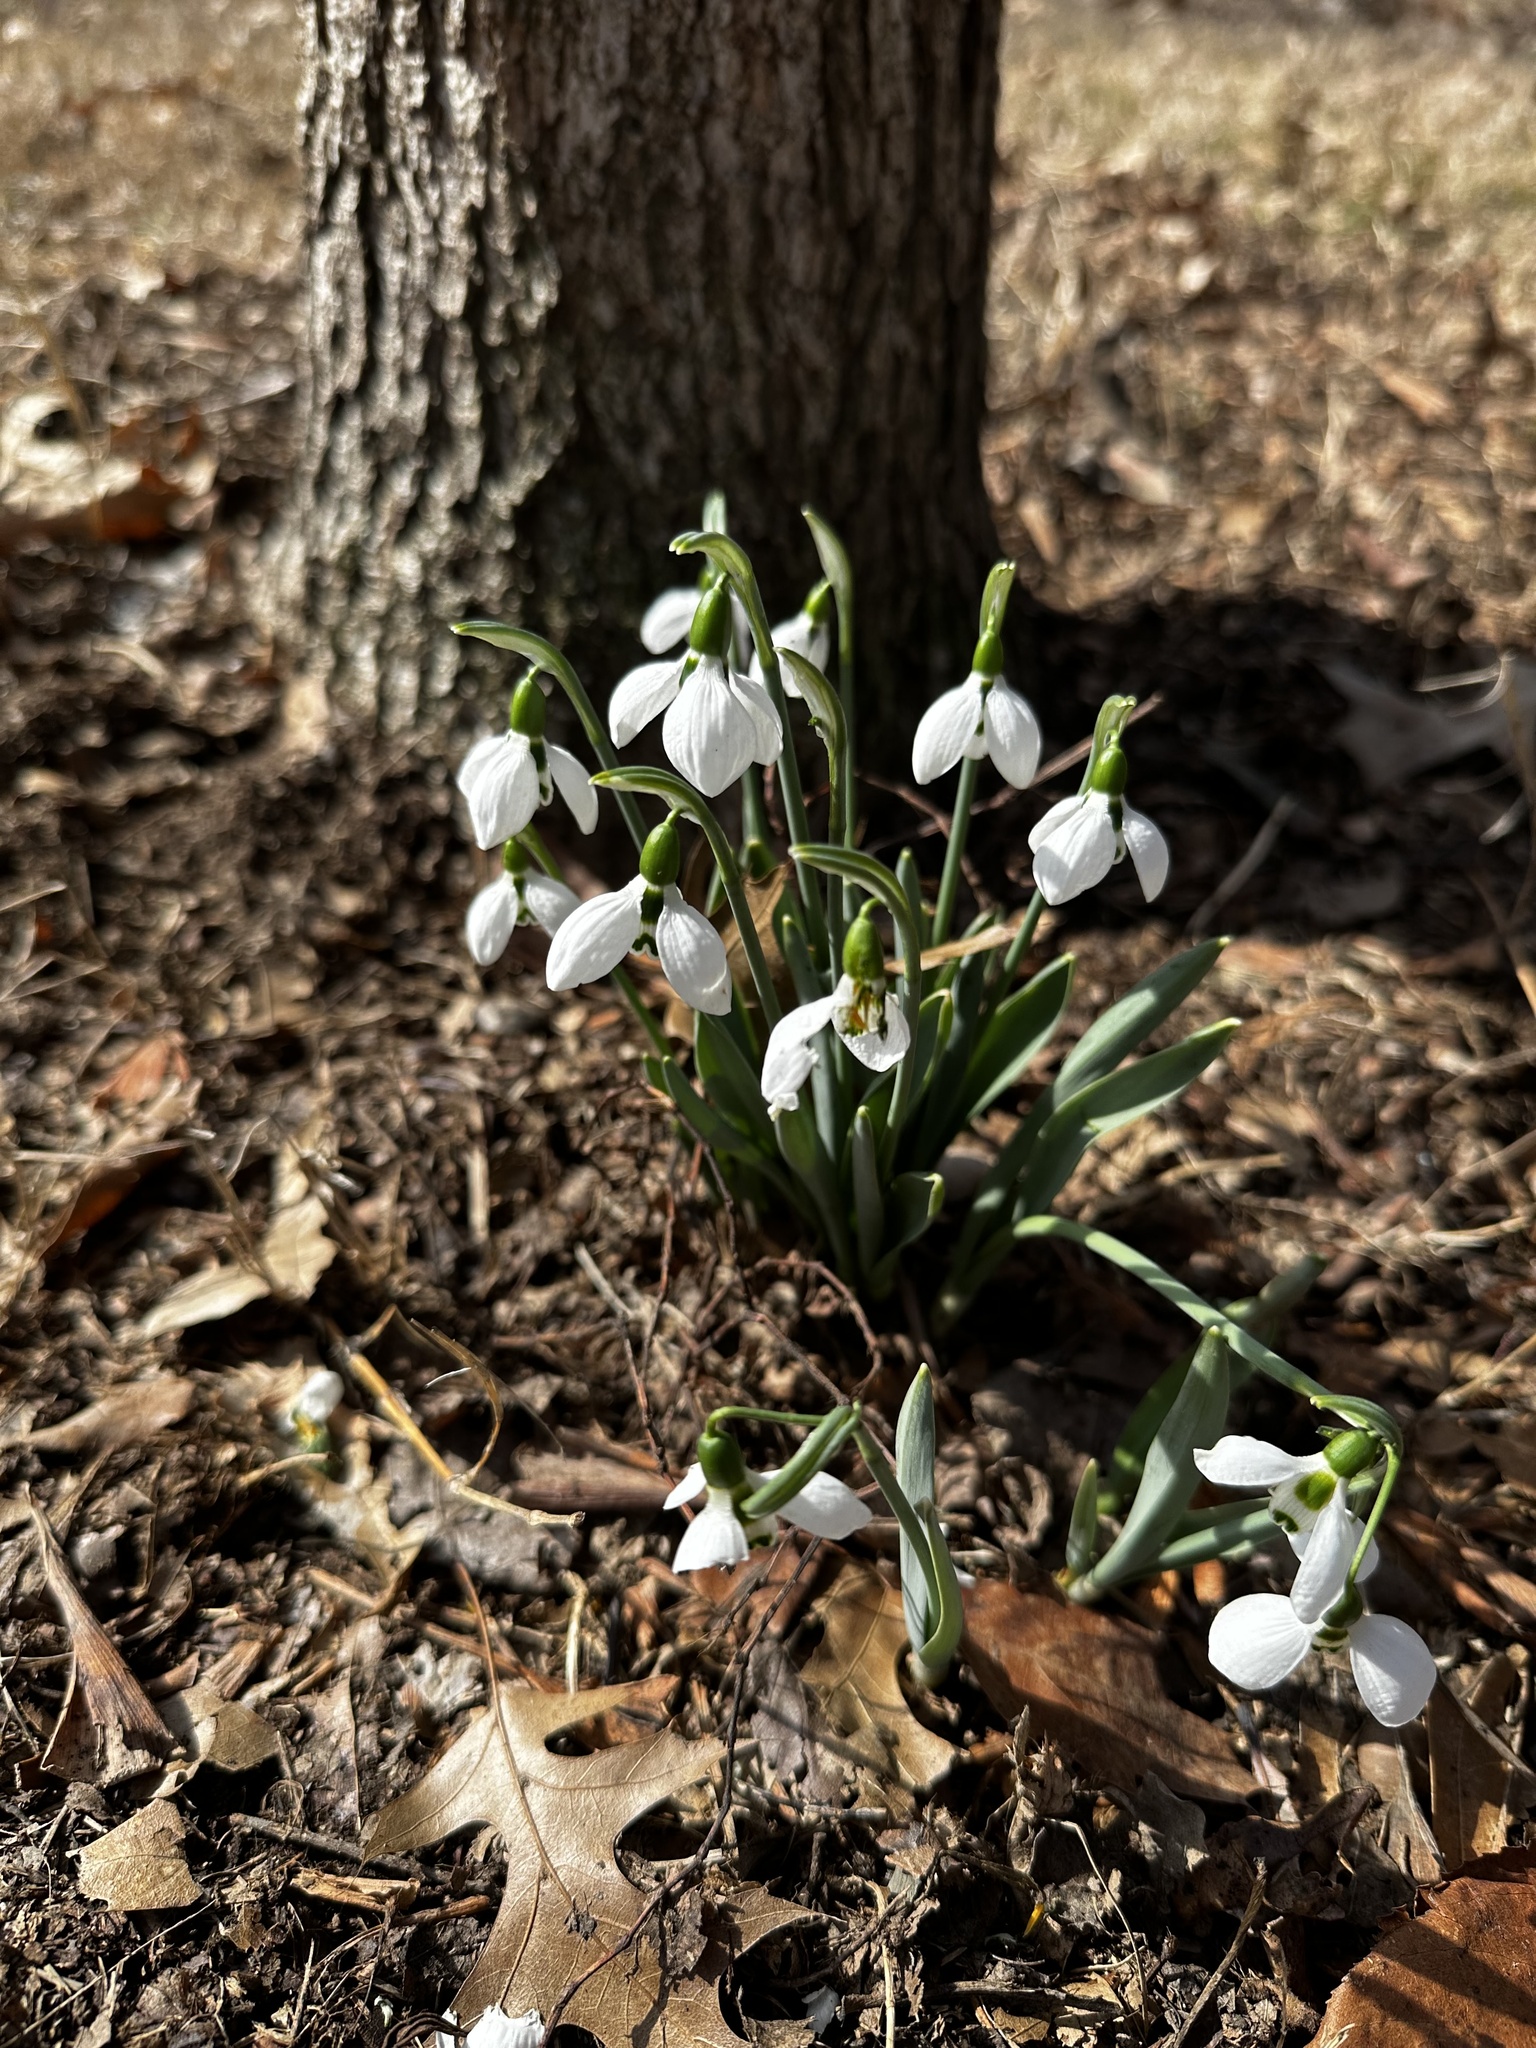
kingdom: Plantae
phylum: Tracheophyta
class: Liliopsida
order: Asparagales
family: Amaryllidaceae
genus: Galanthus
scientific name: Galanthus elwesii
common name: Greater snowdrop
